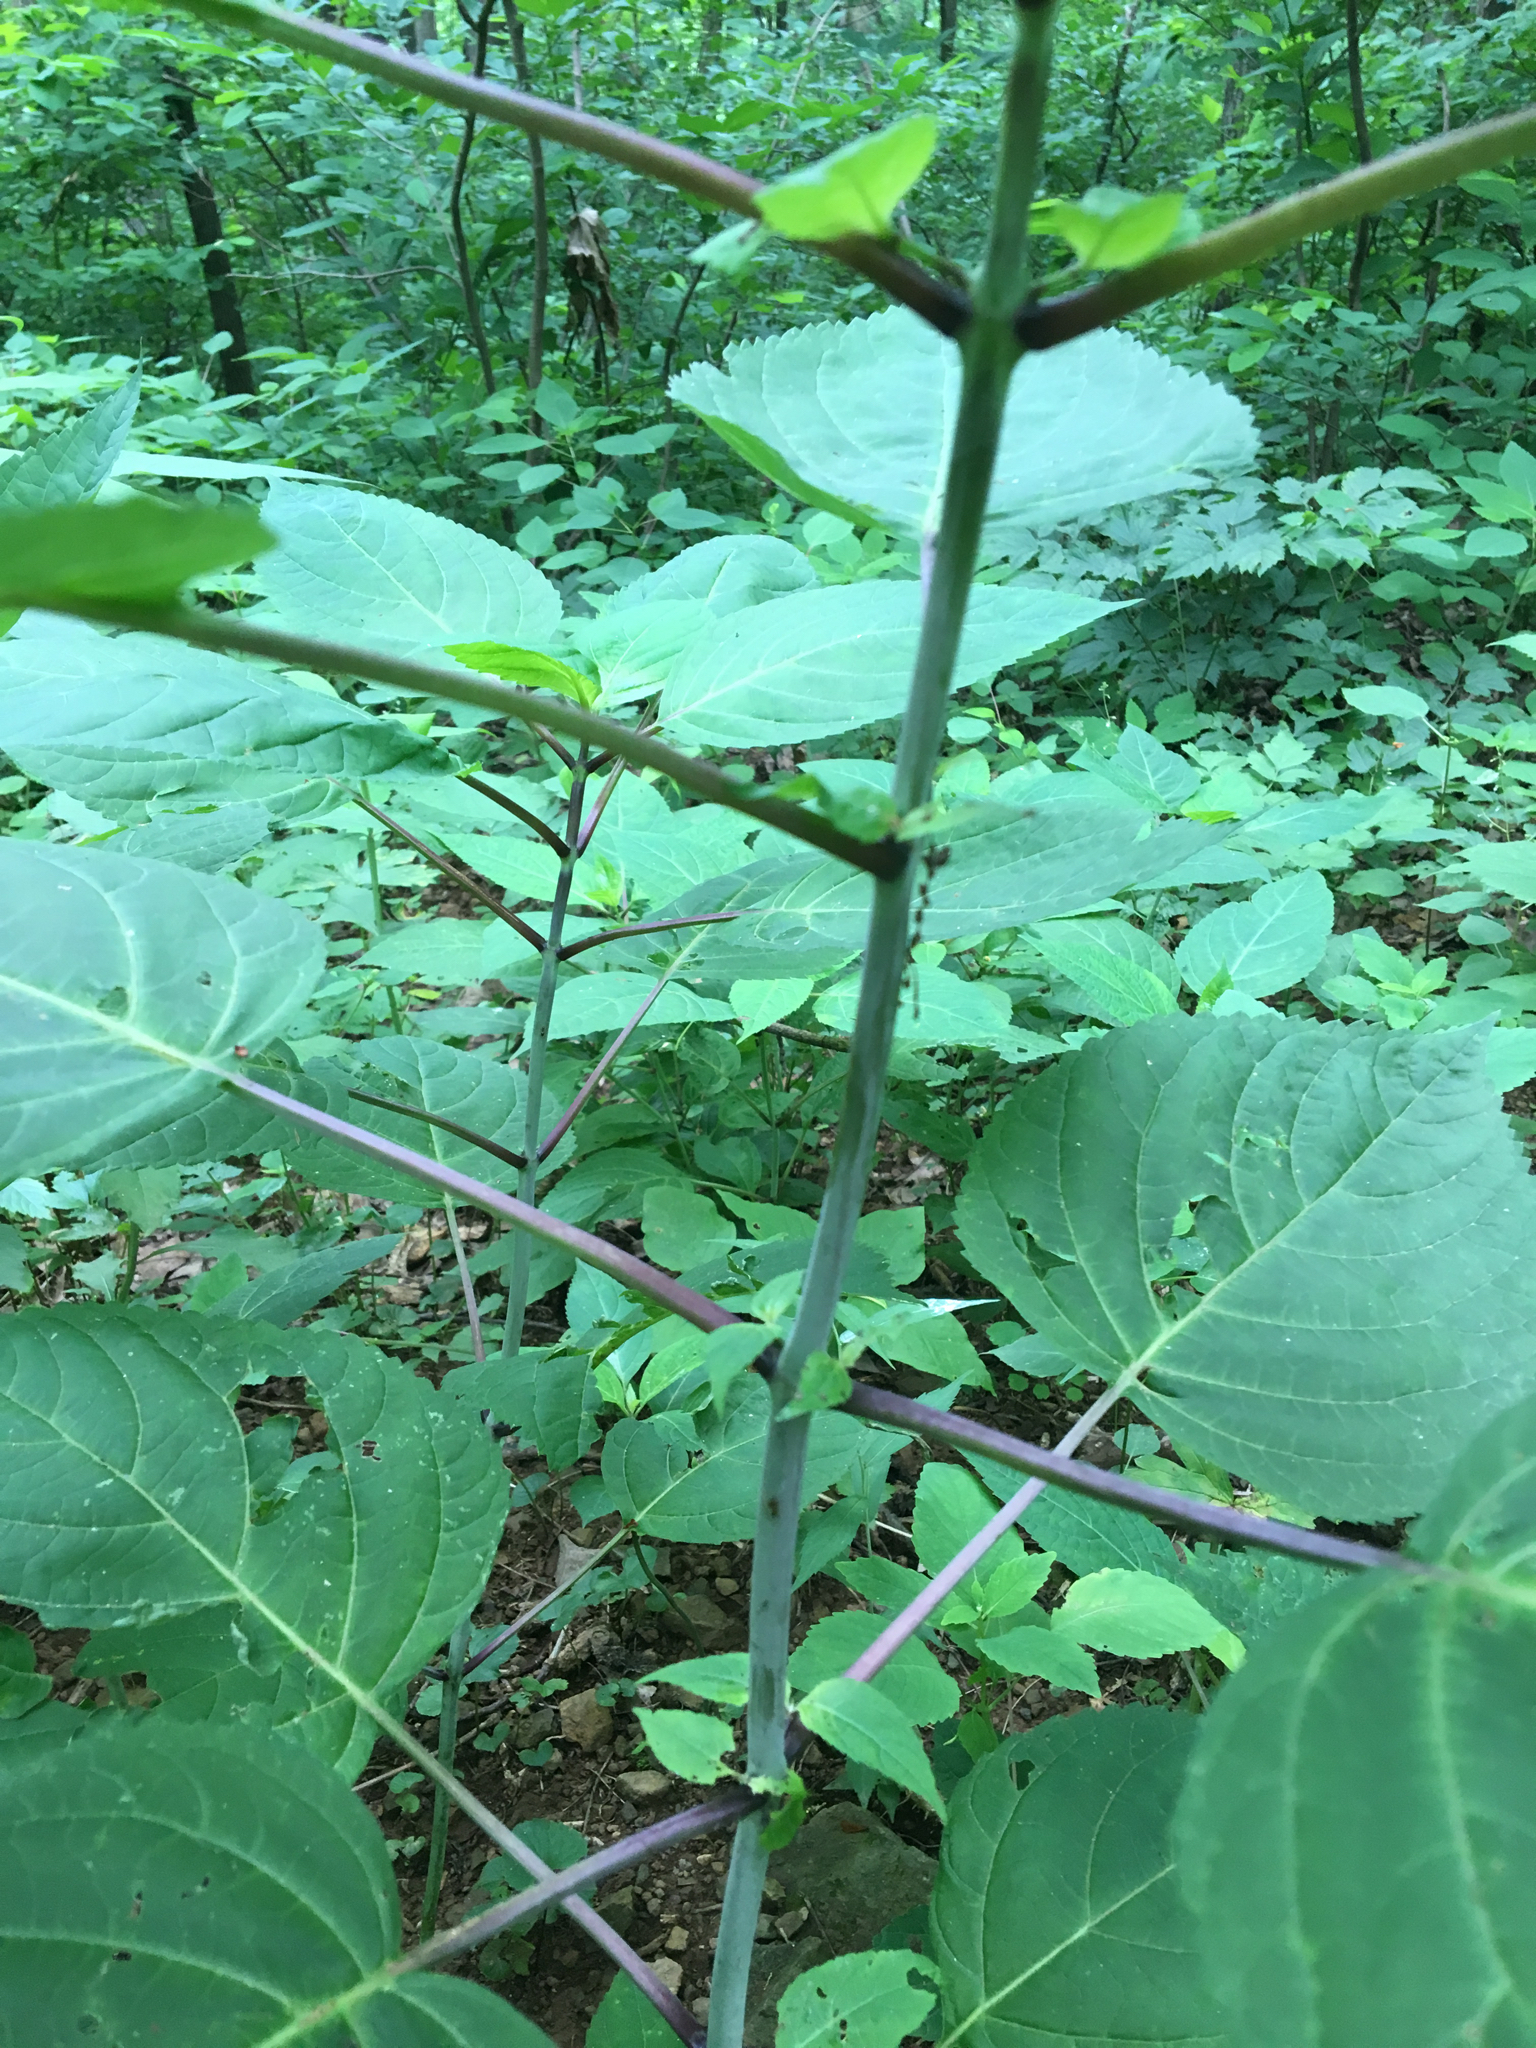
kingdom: Plantae
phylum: Tracheophyta
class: Magnoliopsida
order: Lamiales
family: Lamiaceae
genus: Collinsonia
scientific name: Collinsonia canadensis
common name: Northern horsebalm
